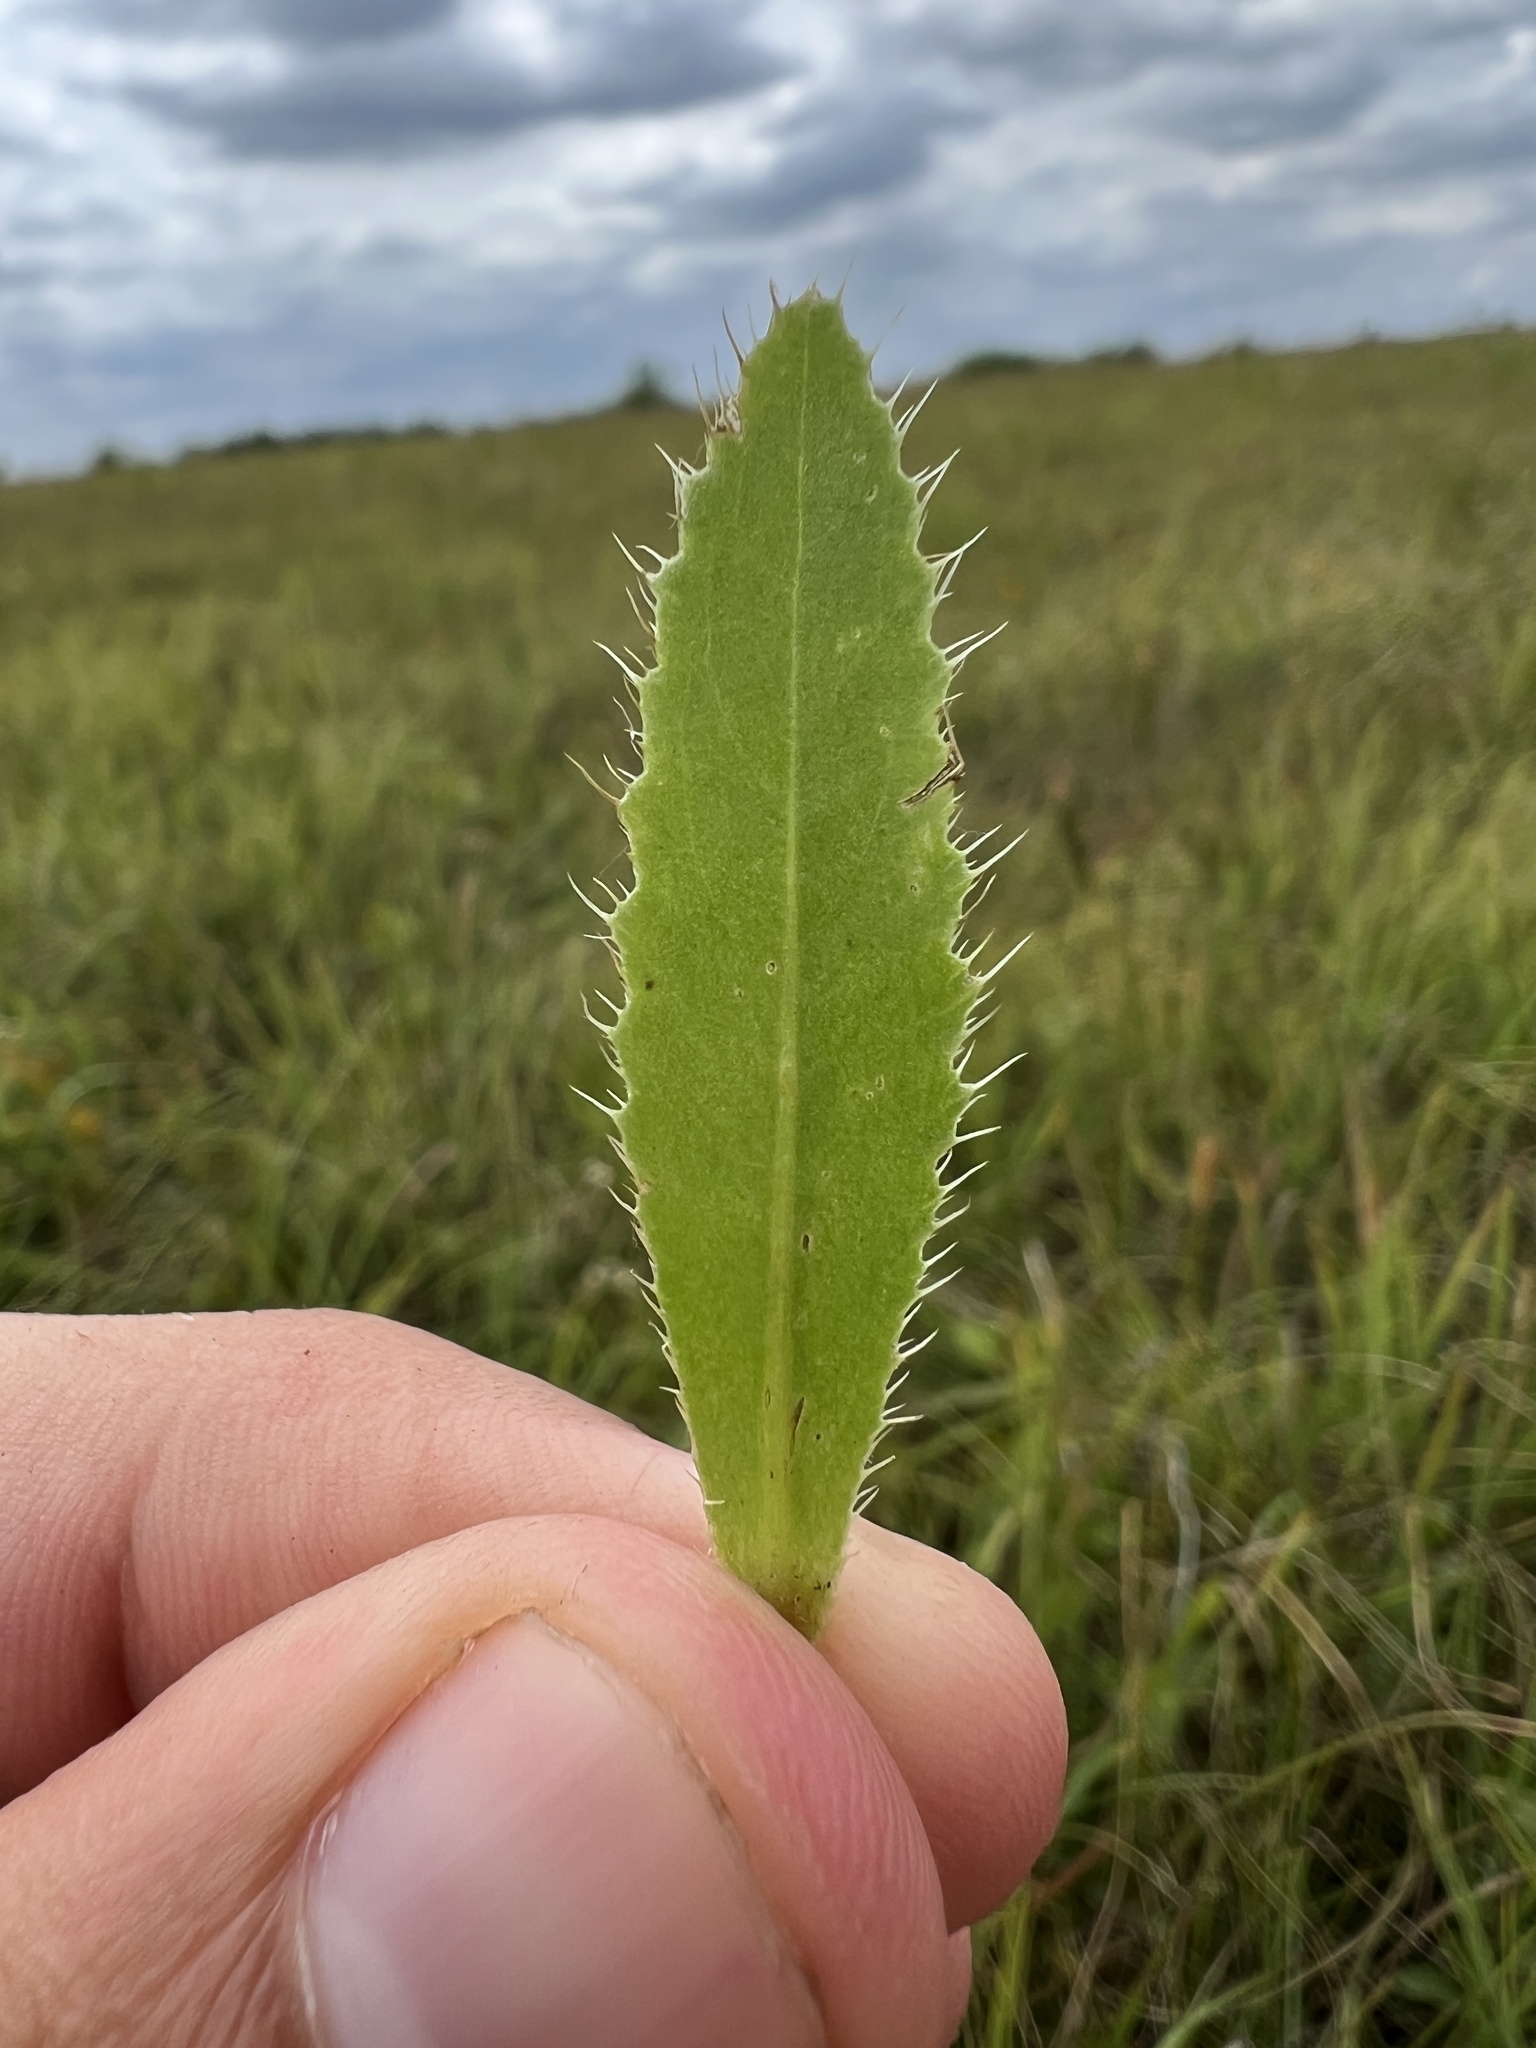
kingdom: Plantae
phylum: Tracheophyta
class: Magnoliopsida
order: Asterales
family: Asteraceae
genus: Carduus
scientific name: Carduus nutans
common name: Musk thistle
